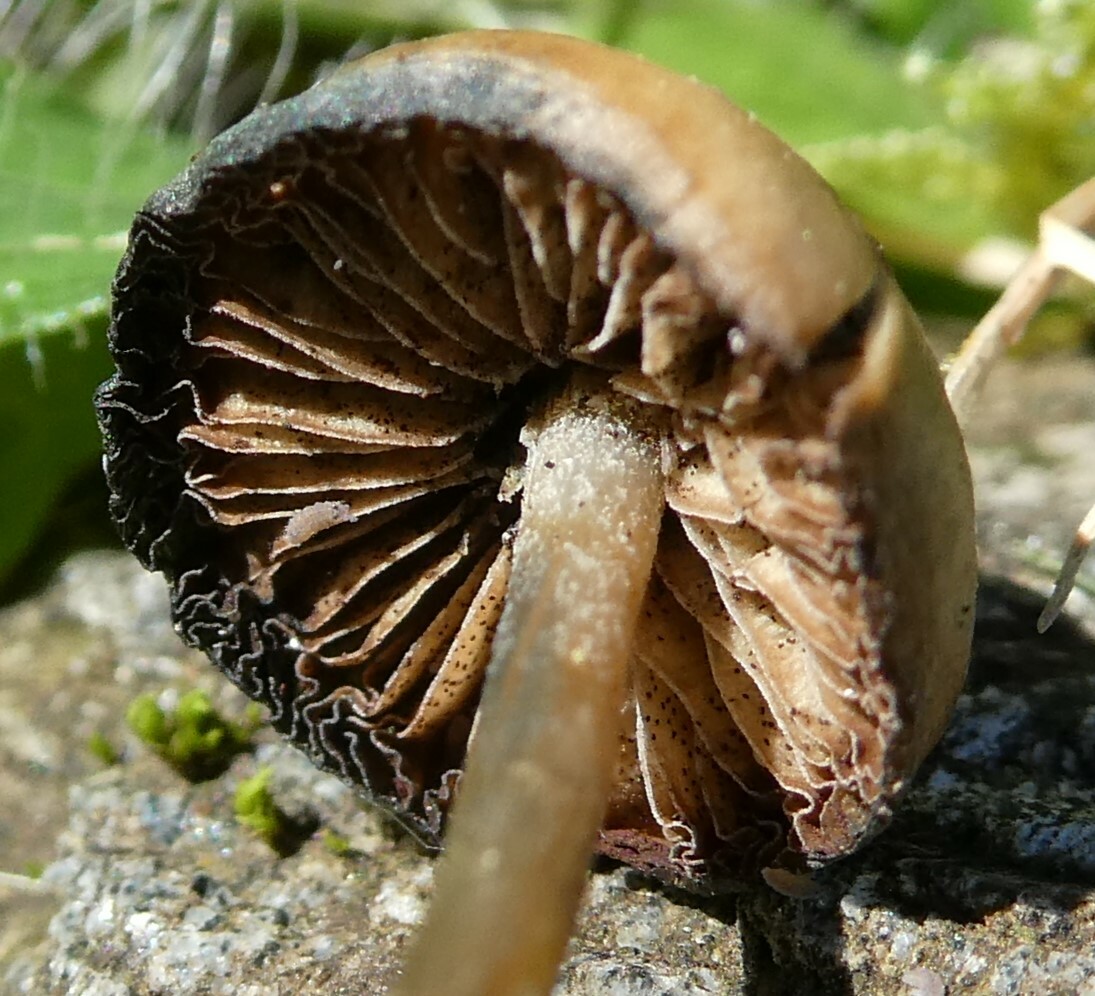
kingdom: Fungi
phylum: Basidiomycota
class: Agaricomycetes
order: Agaricales
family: Hymenogastraceae
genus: Psilocybe
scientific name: Psilocybe caerulipes
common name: Blue-foot
